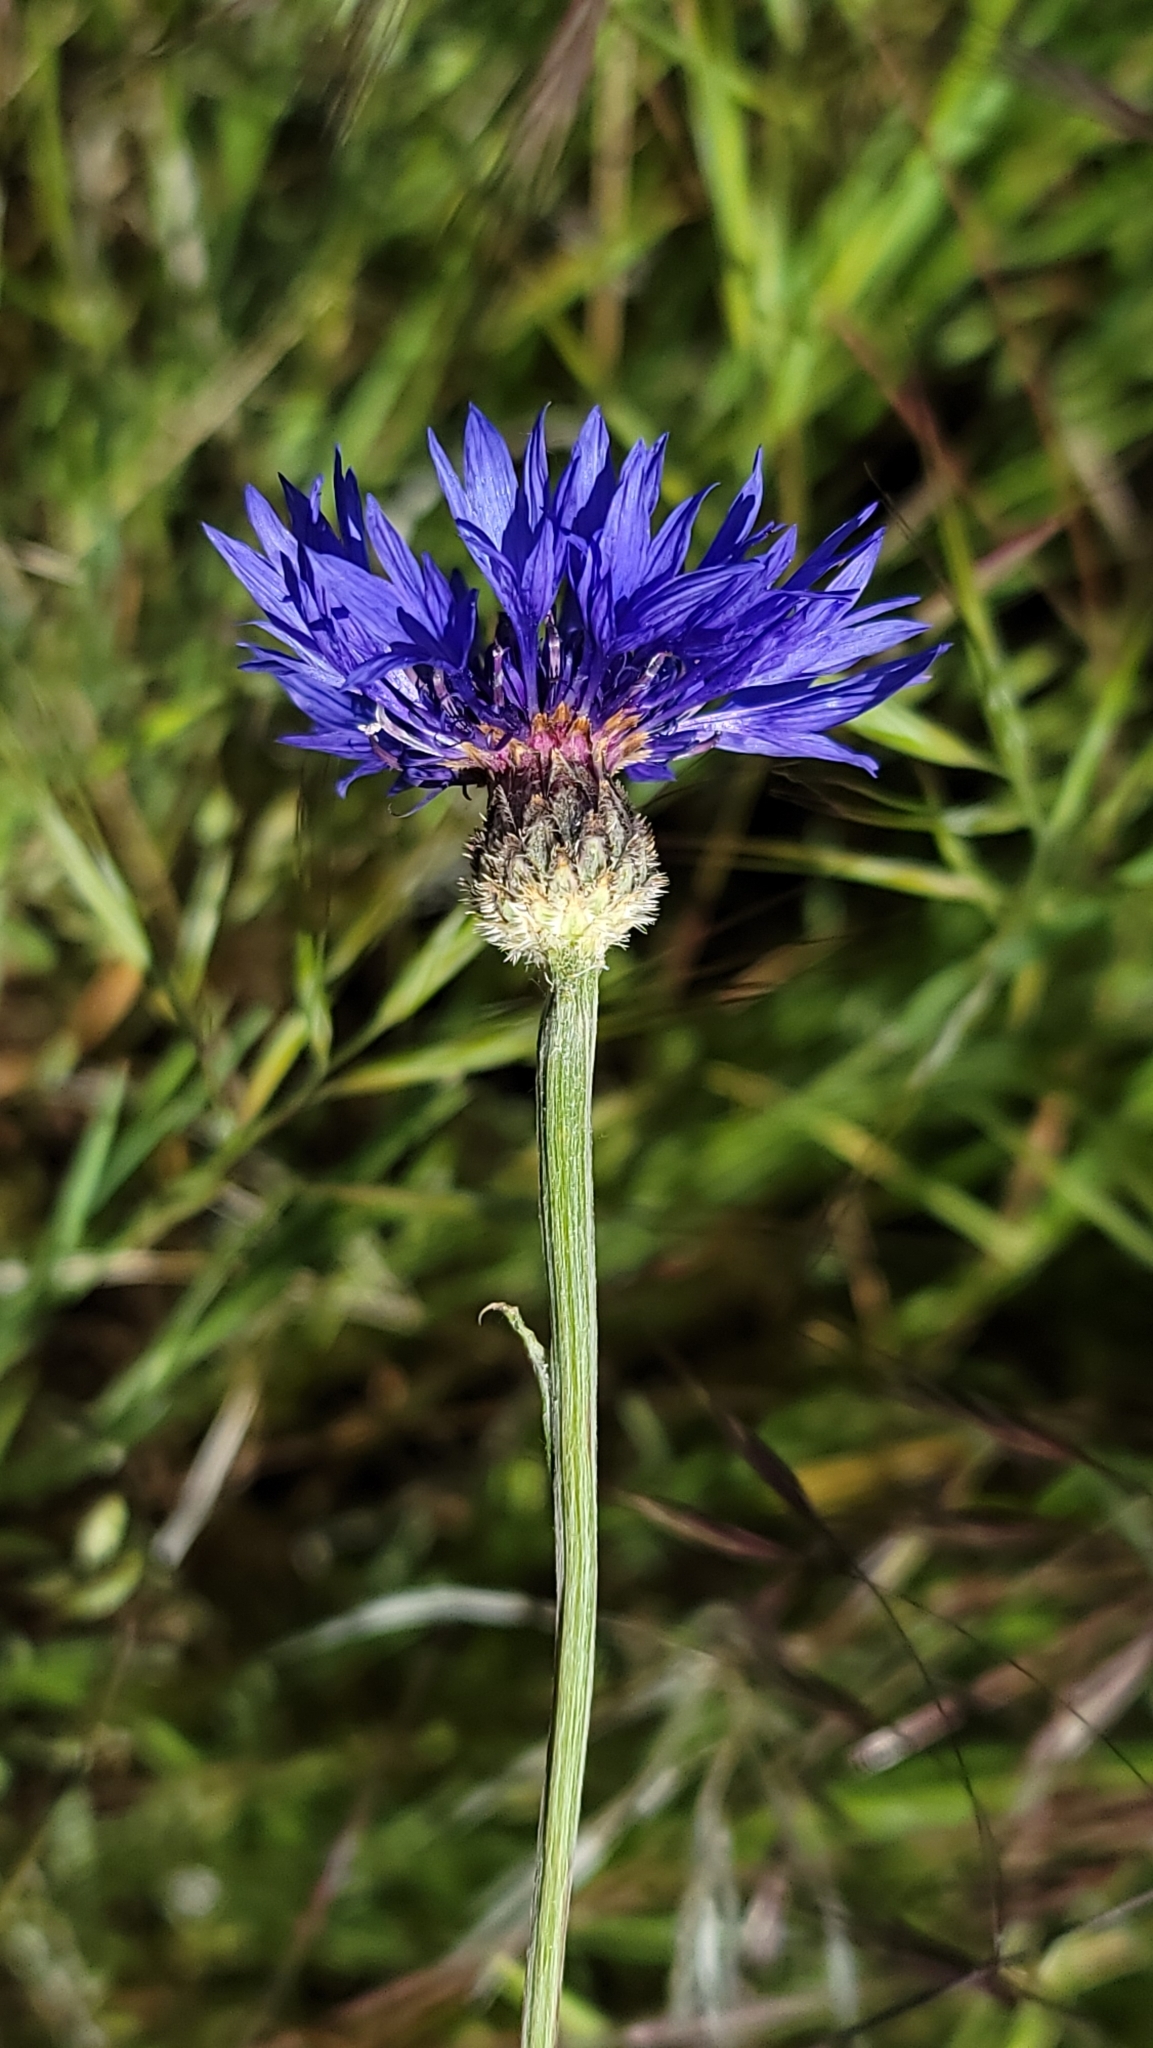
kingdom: Plantae
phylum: Tracheophyta
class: Magnoliopsida
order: Asterales
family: Asteraceae
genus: Centaurea
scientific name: Centaurea cyanus
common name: Cornflower
